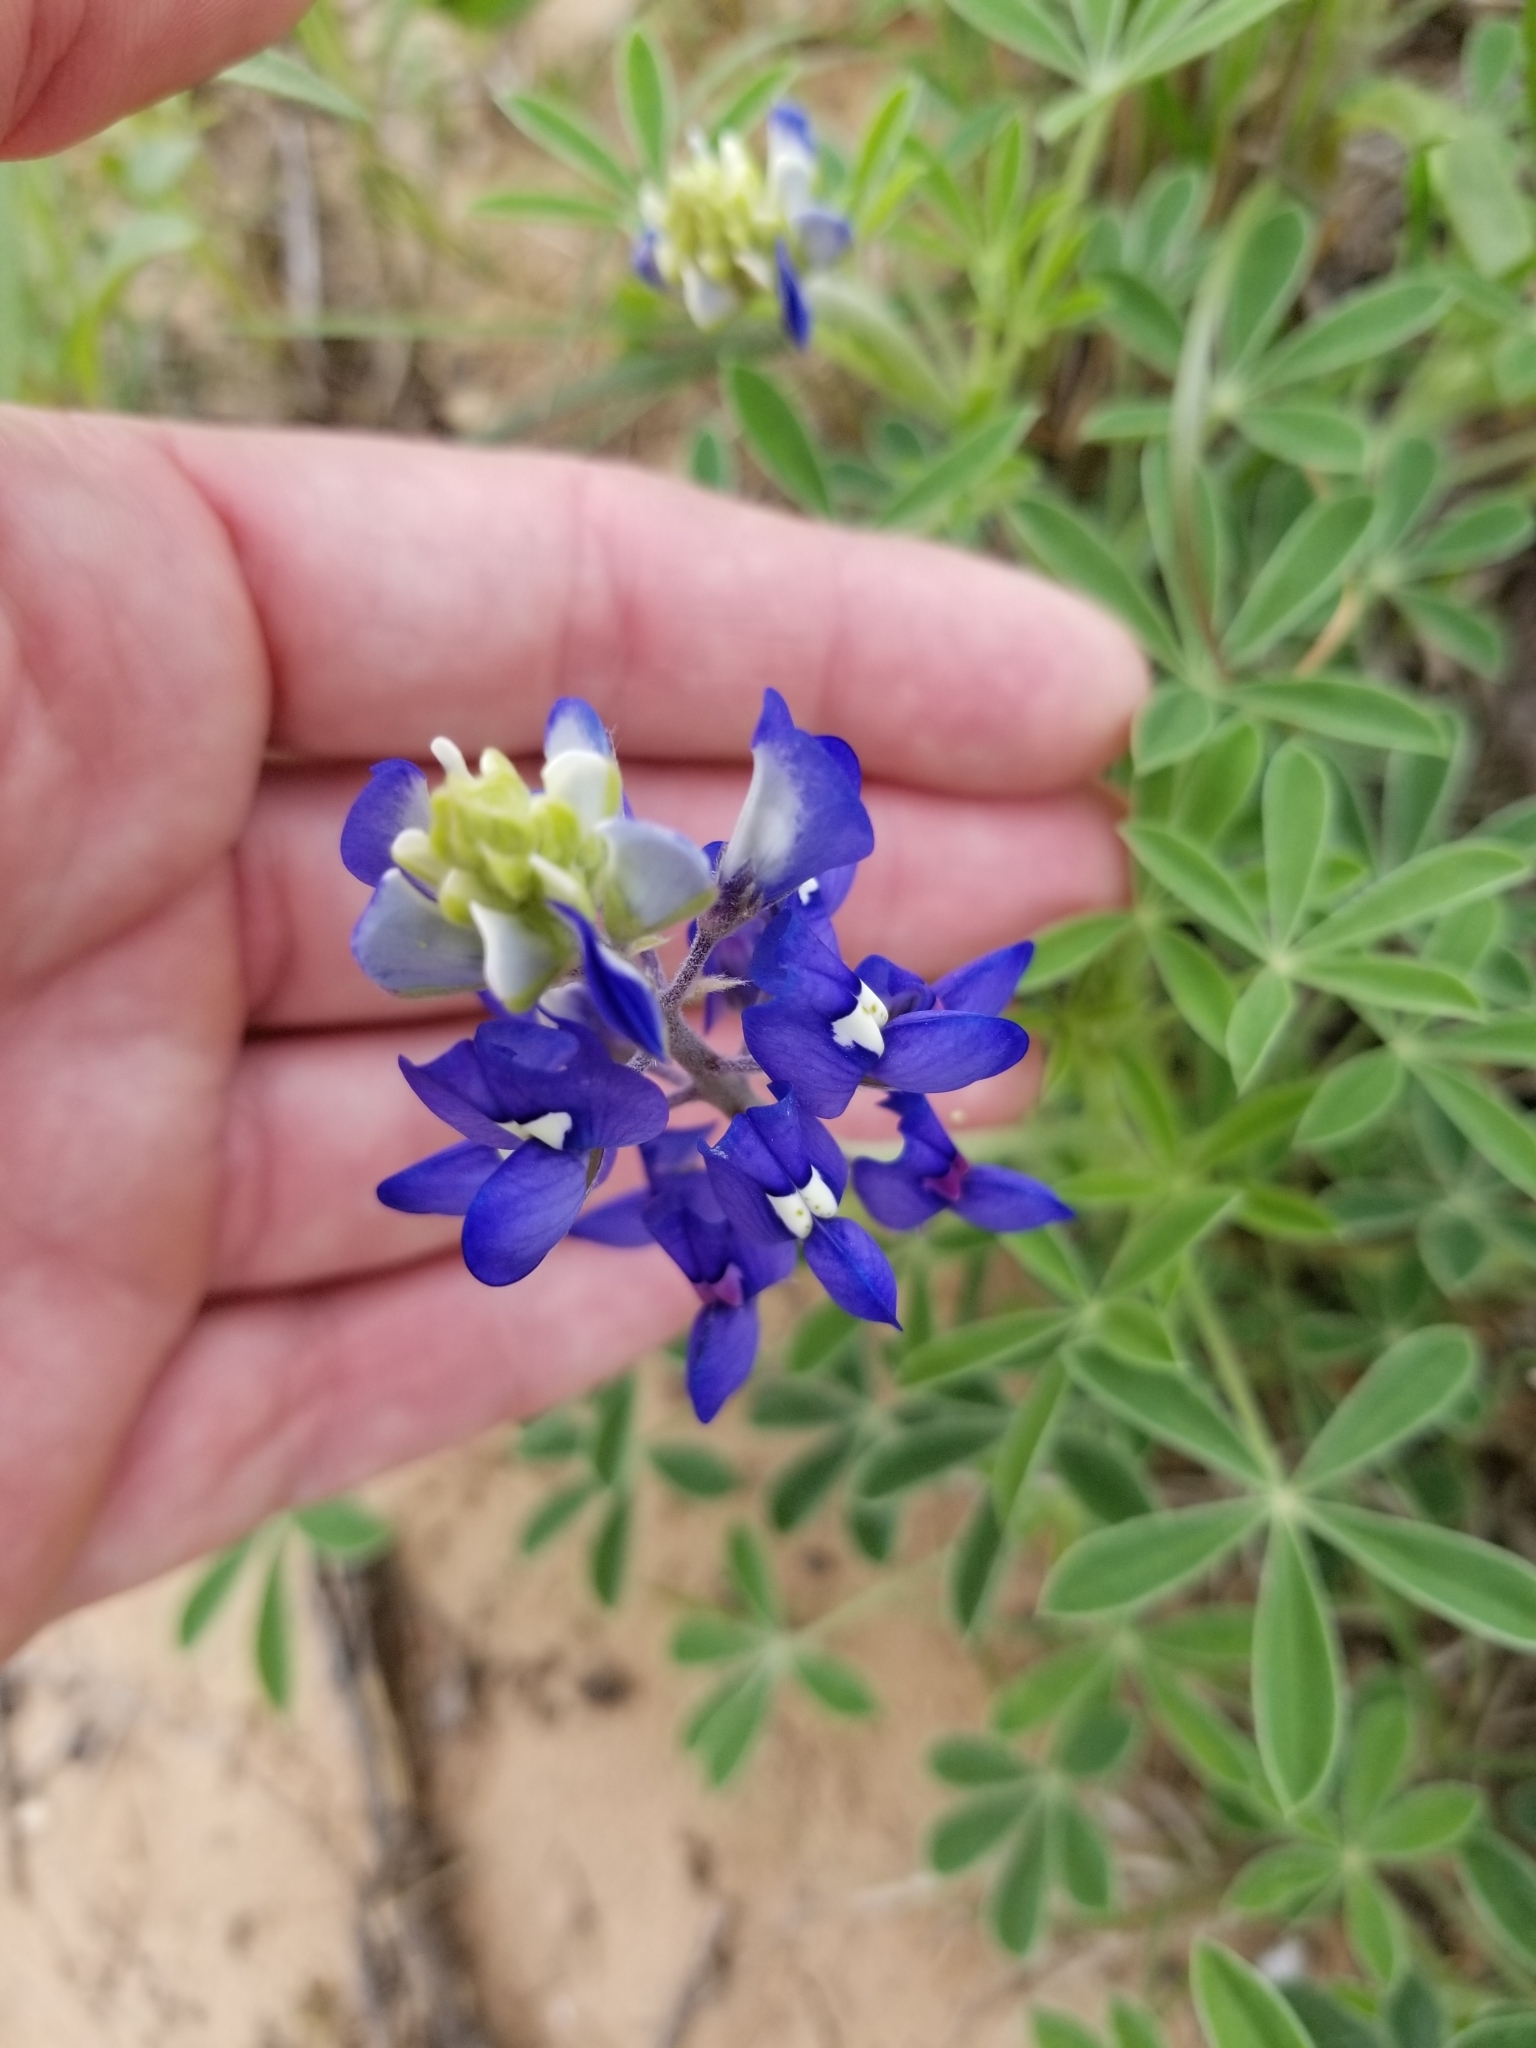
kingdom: Plantae
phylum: Tracheophyta
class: Magnoliopsida
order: Fabales
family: Fabaceae
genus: Lupinus
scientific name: Lupinus texensis
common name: Texas bluebonnet
